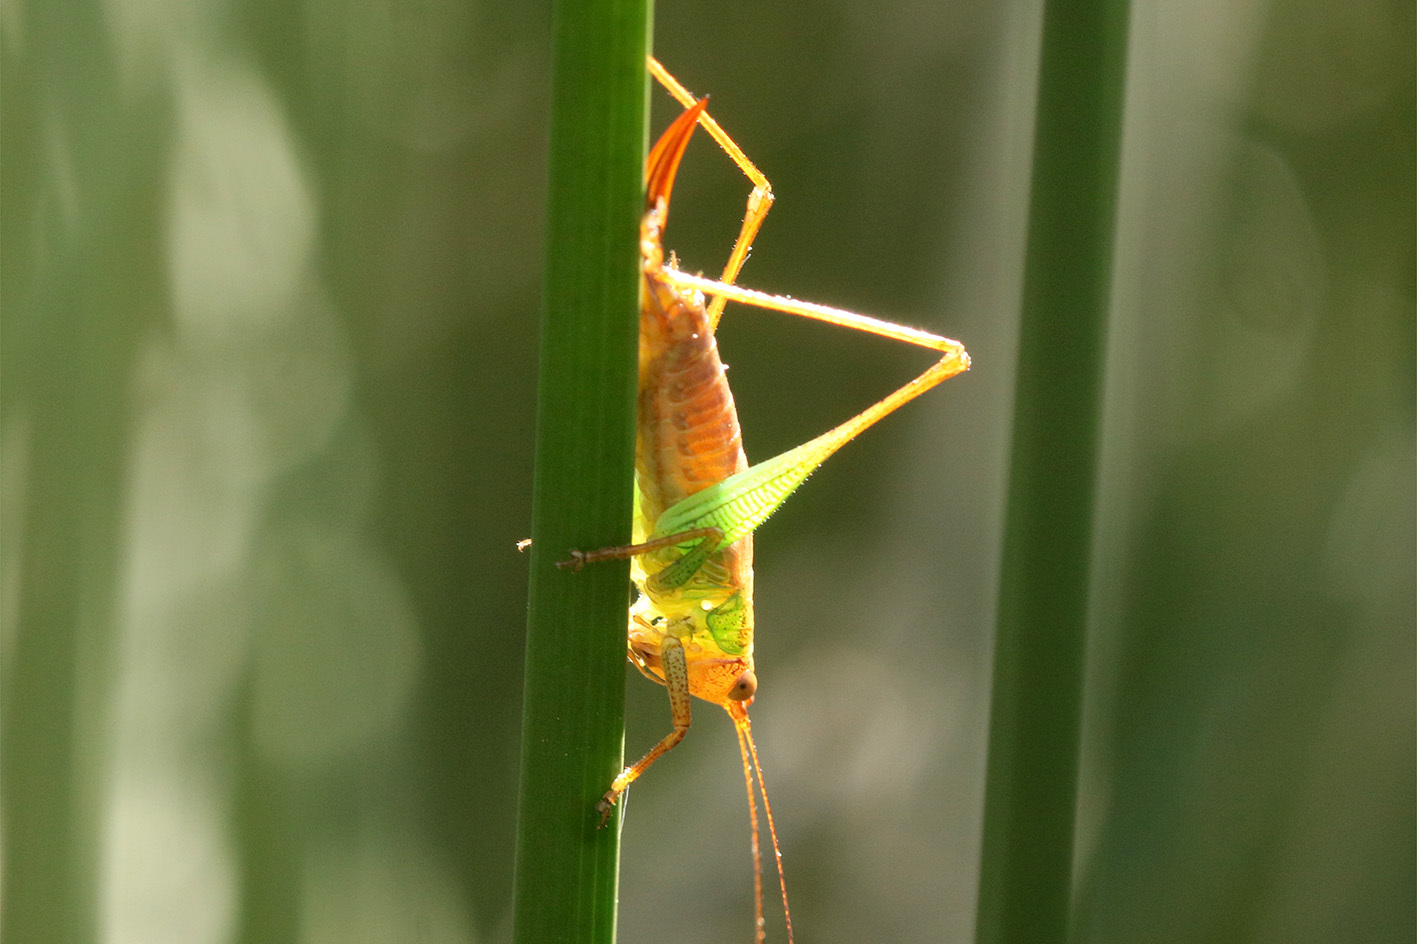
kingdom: Animalia
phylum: Arthropoda
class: Insecta
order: Orthoptera
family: Tettigoniidae
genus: Conocephalus
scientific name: Conocephalus cinnamonifrons
